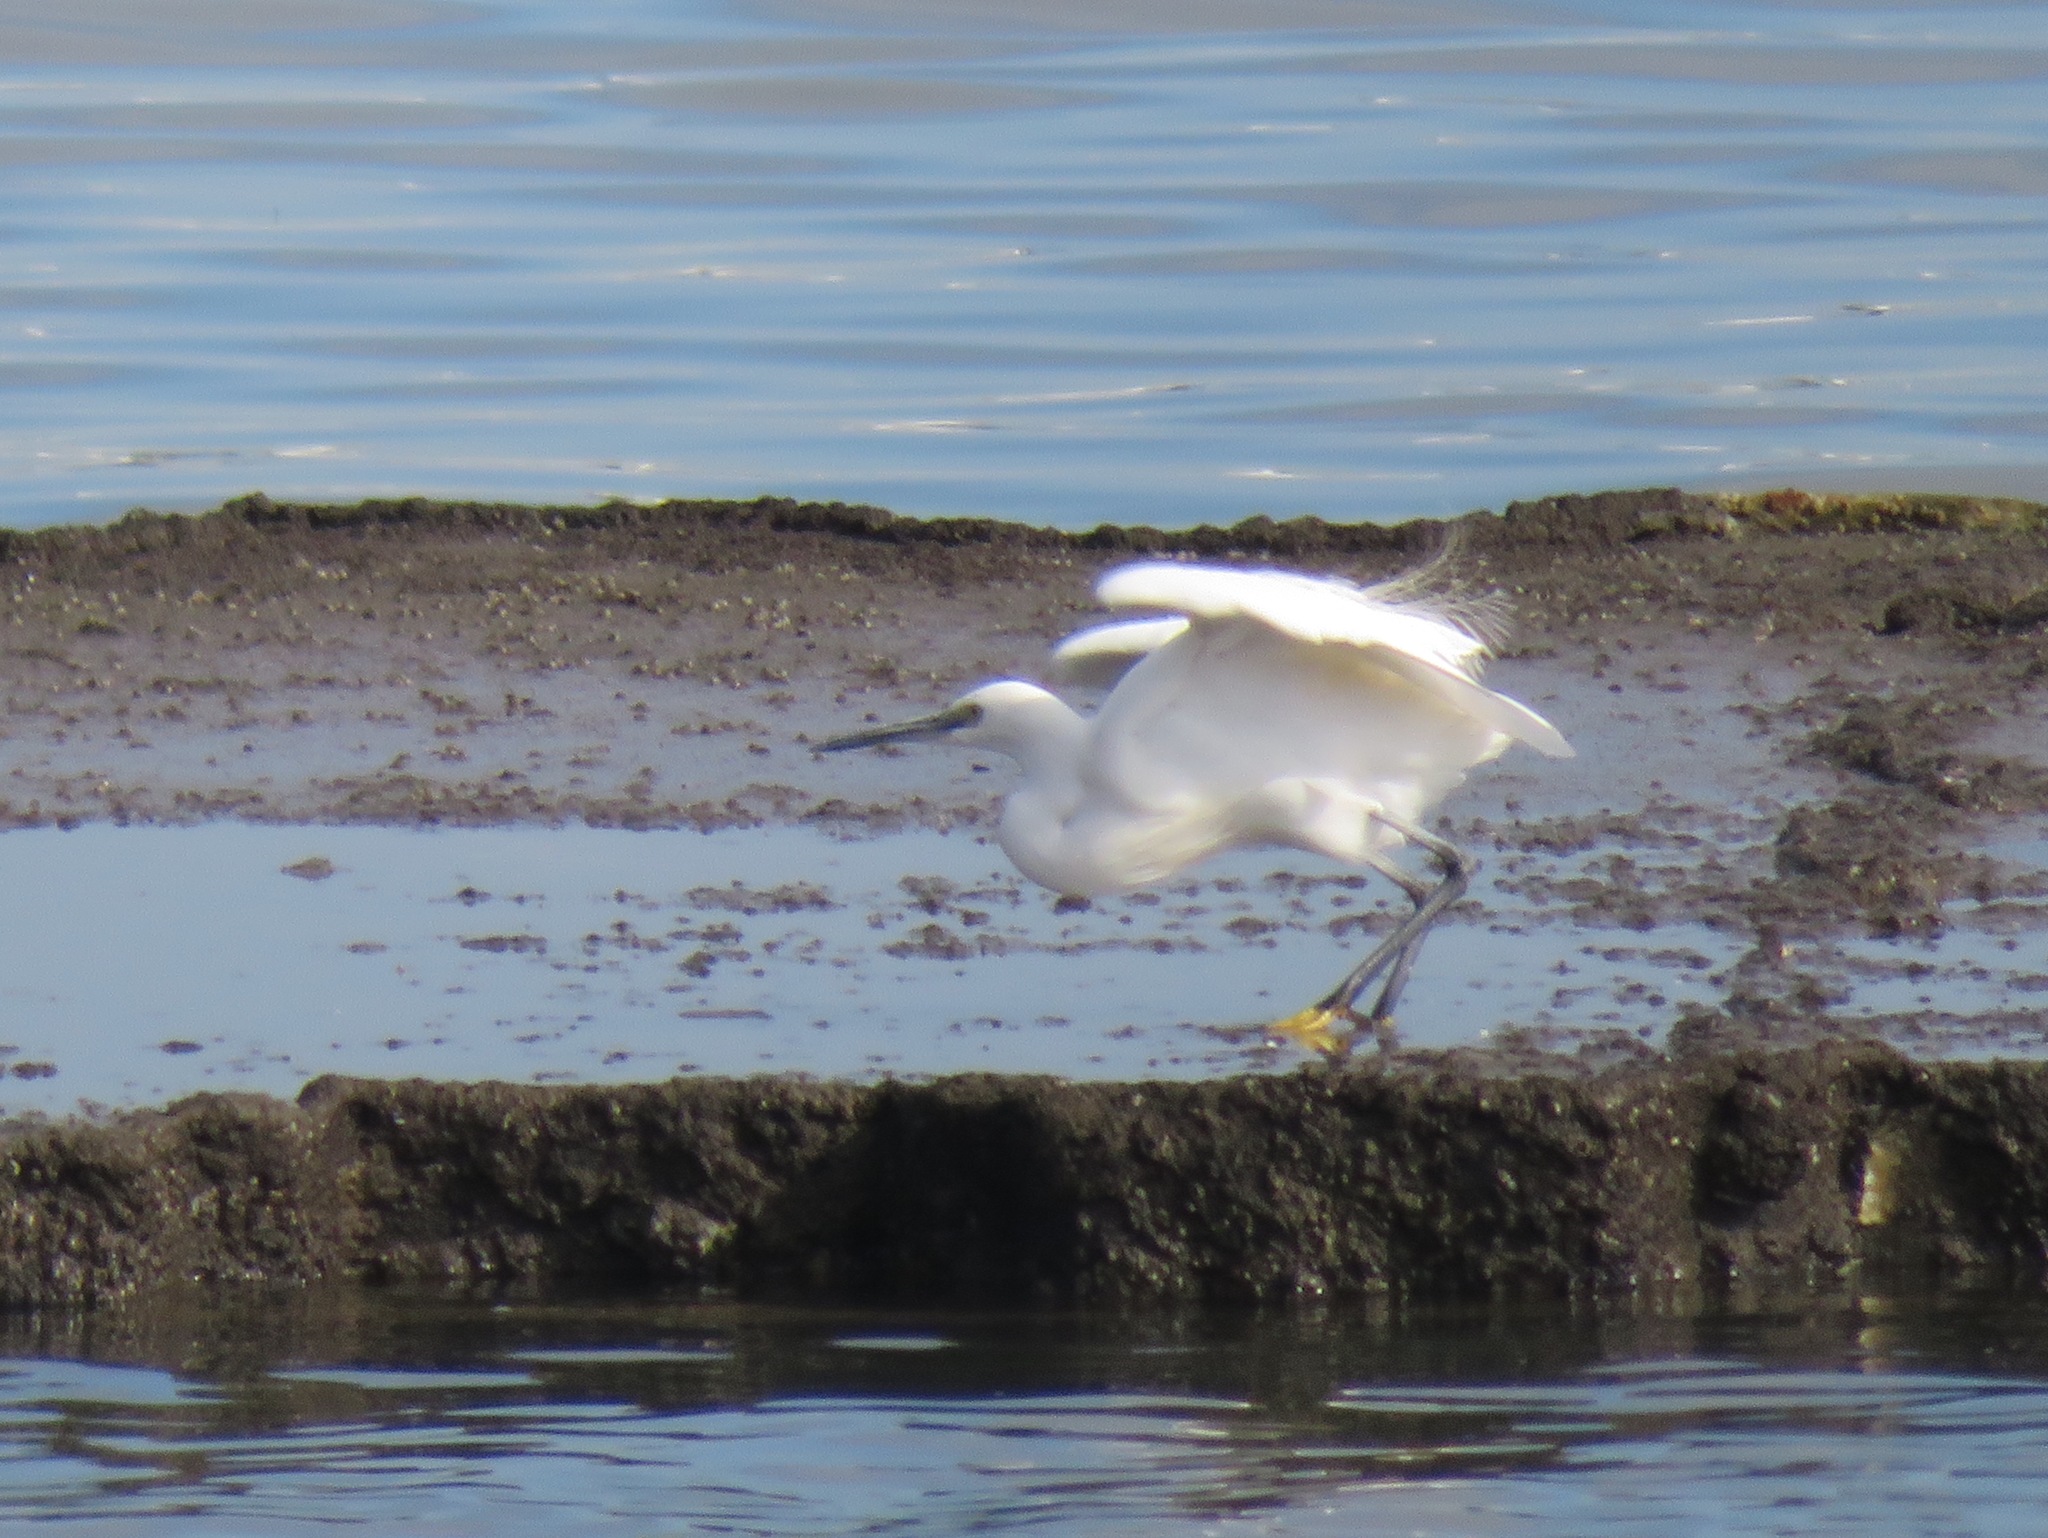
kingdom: Animalia
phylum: Chordata
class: Aves
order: Pelecaniformes
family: Ardeidae
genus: Egretta
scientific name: Egretta garzetta
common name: Little egret
